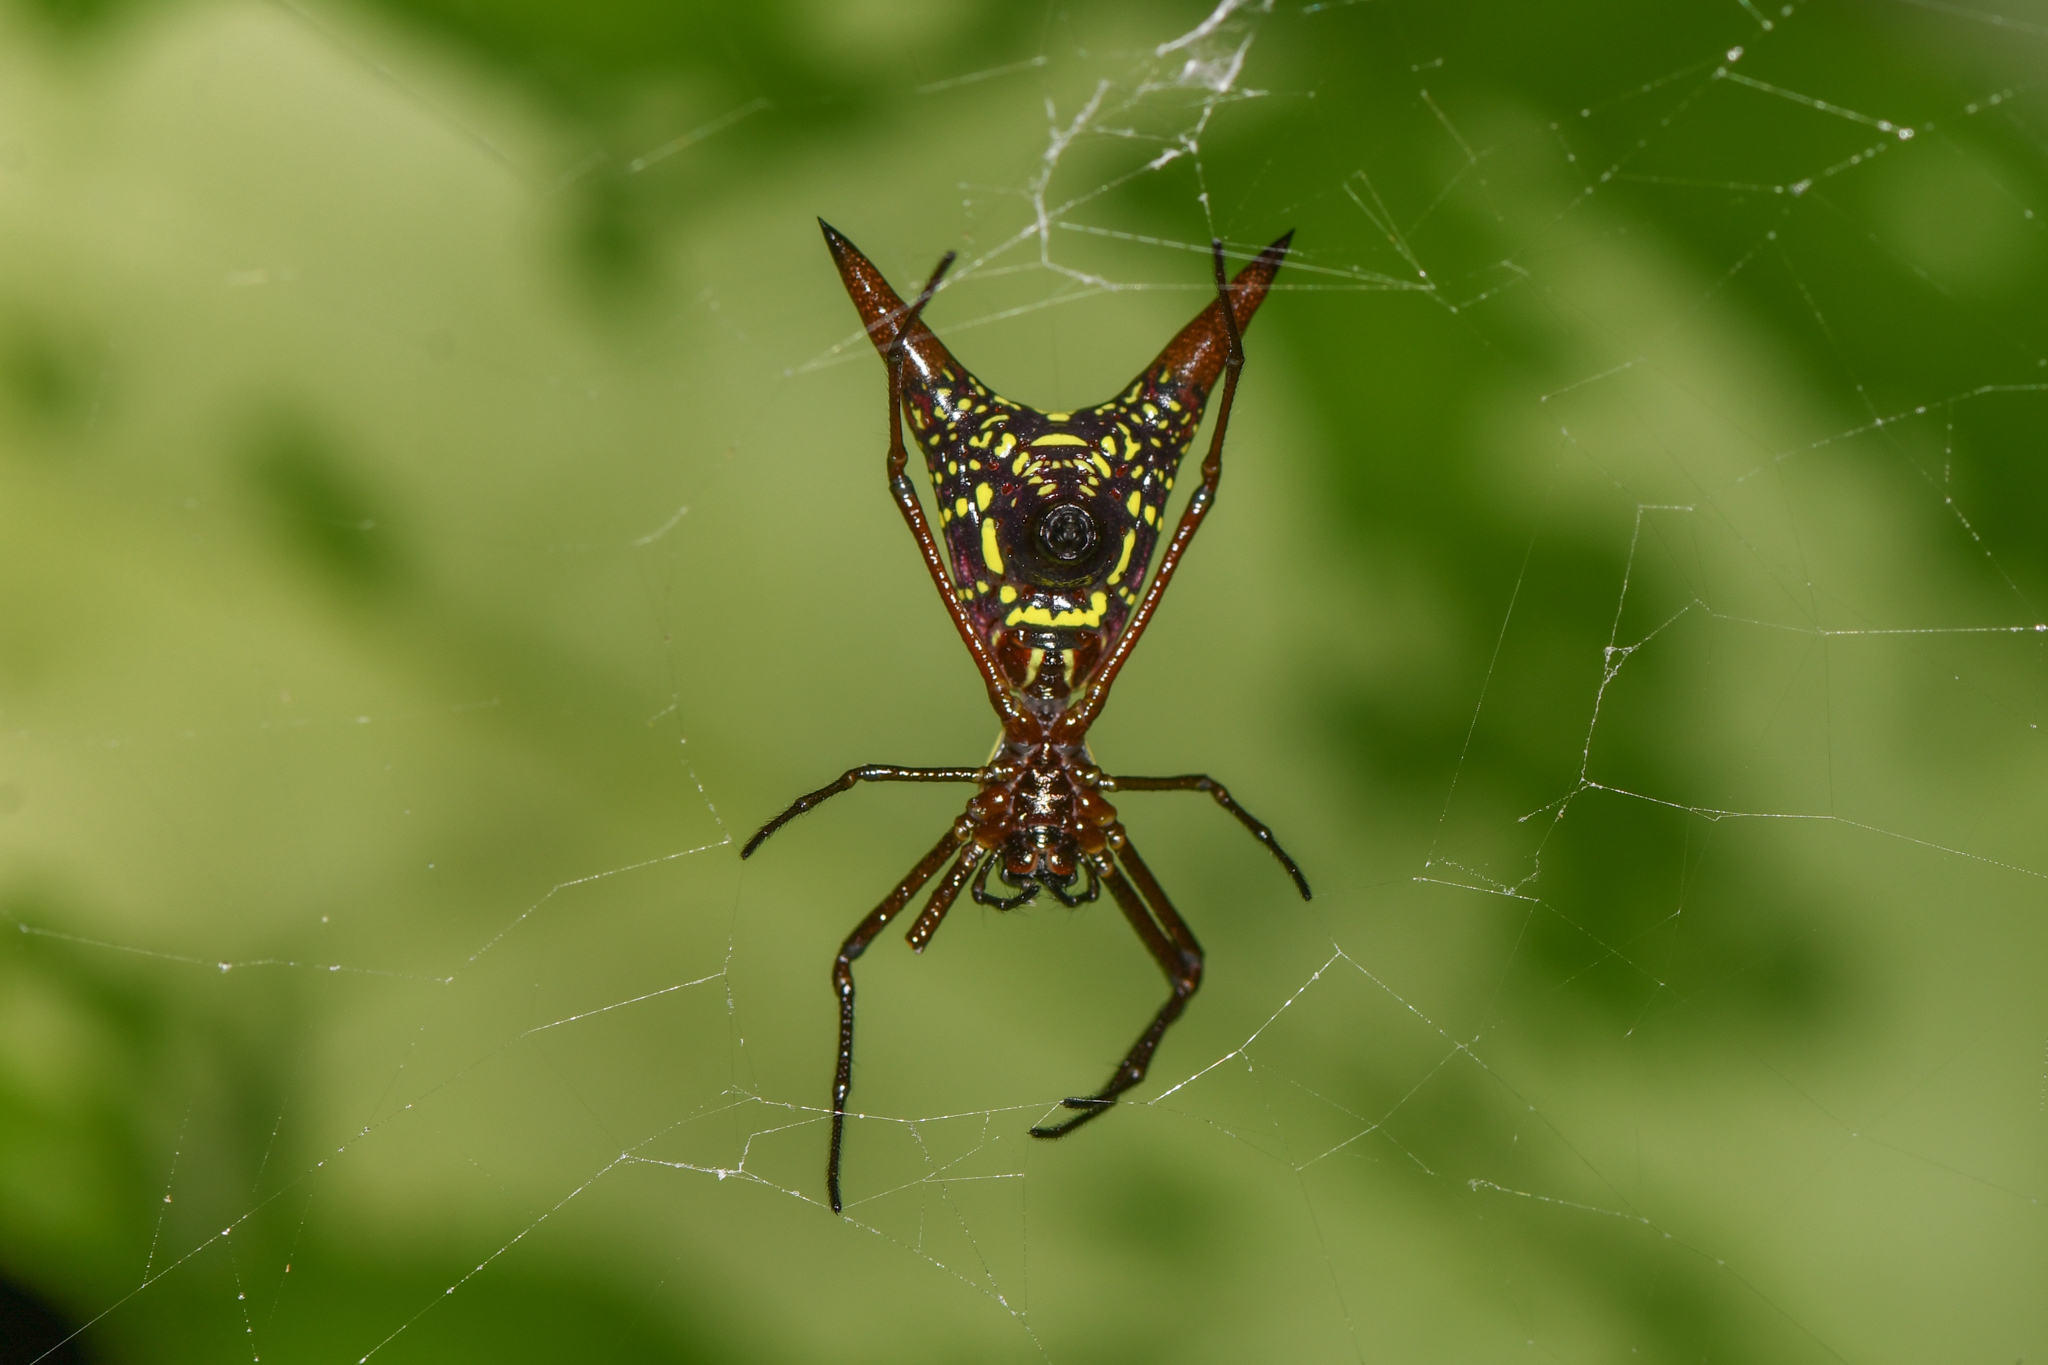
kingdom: Animalia
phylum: Arthropoda
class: Arachnida
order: Araneae
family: Araneidae
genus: Micrathena
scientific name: Micrathena sexspinosa
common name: Orb weavers
